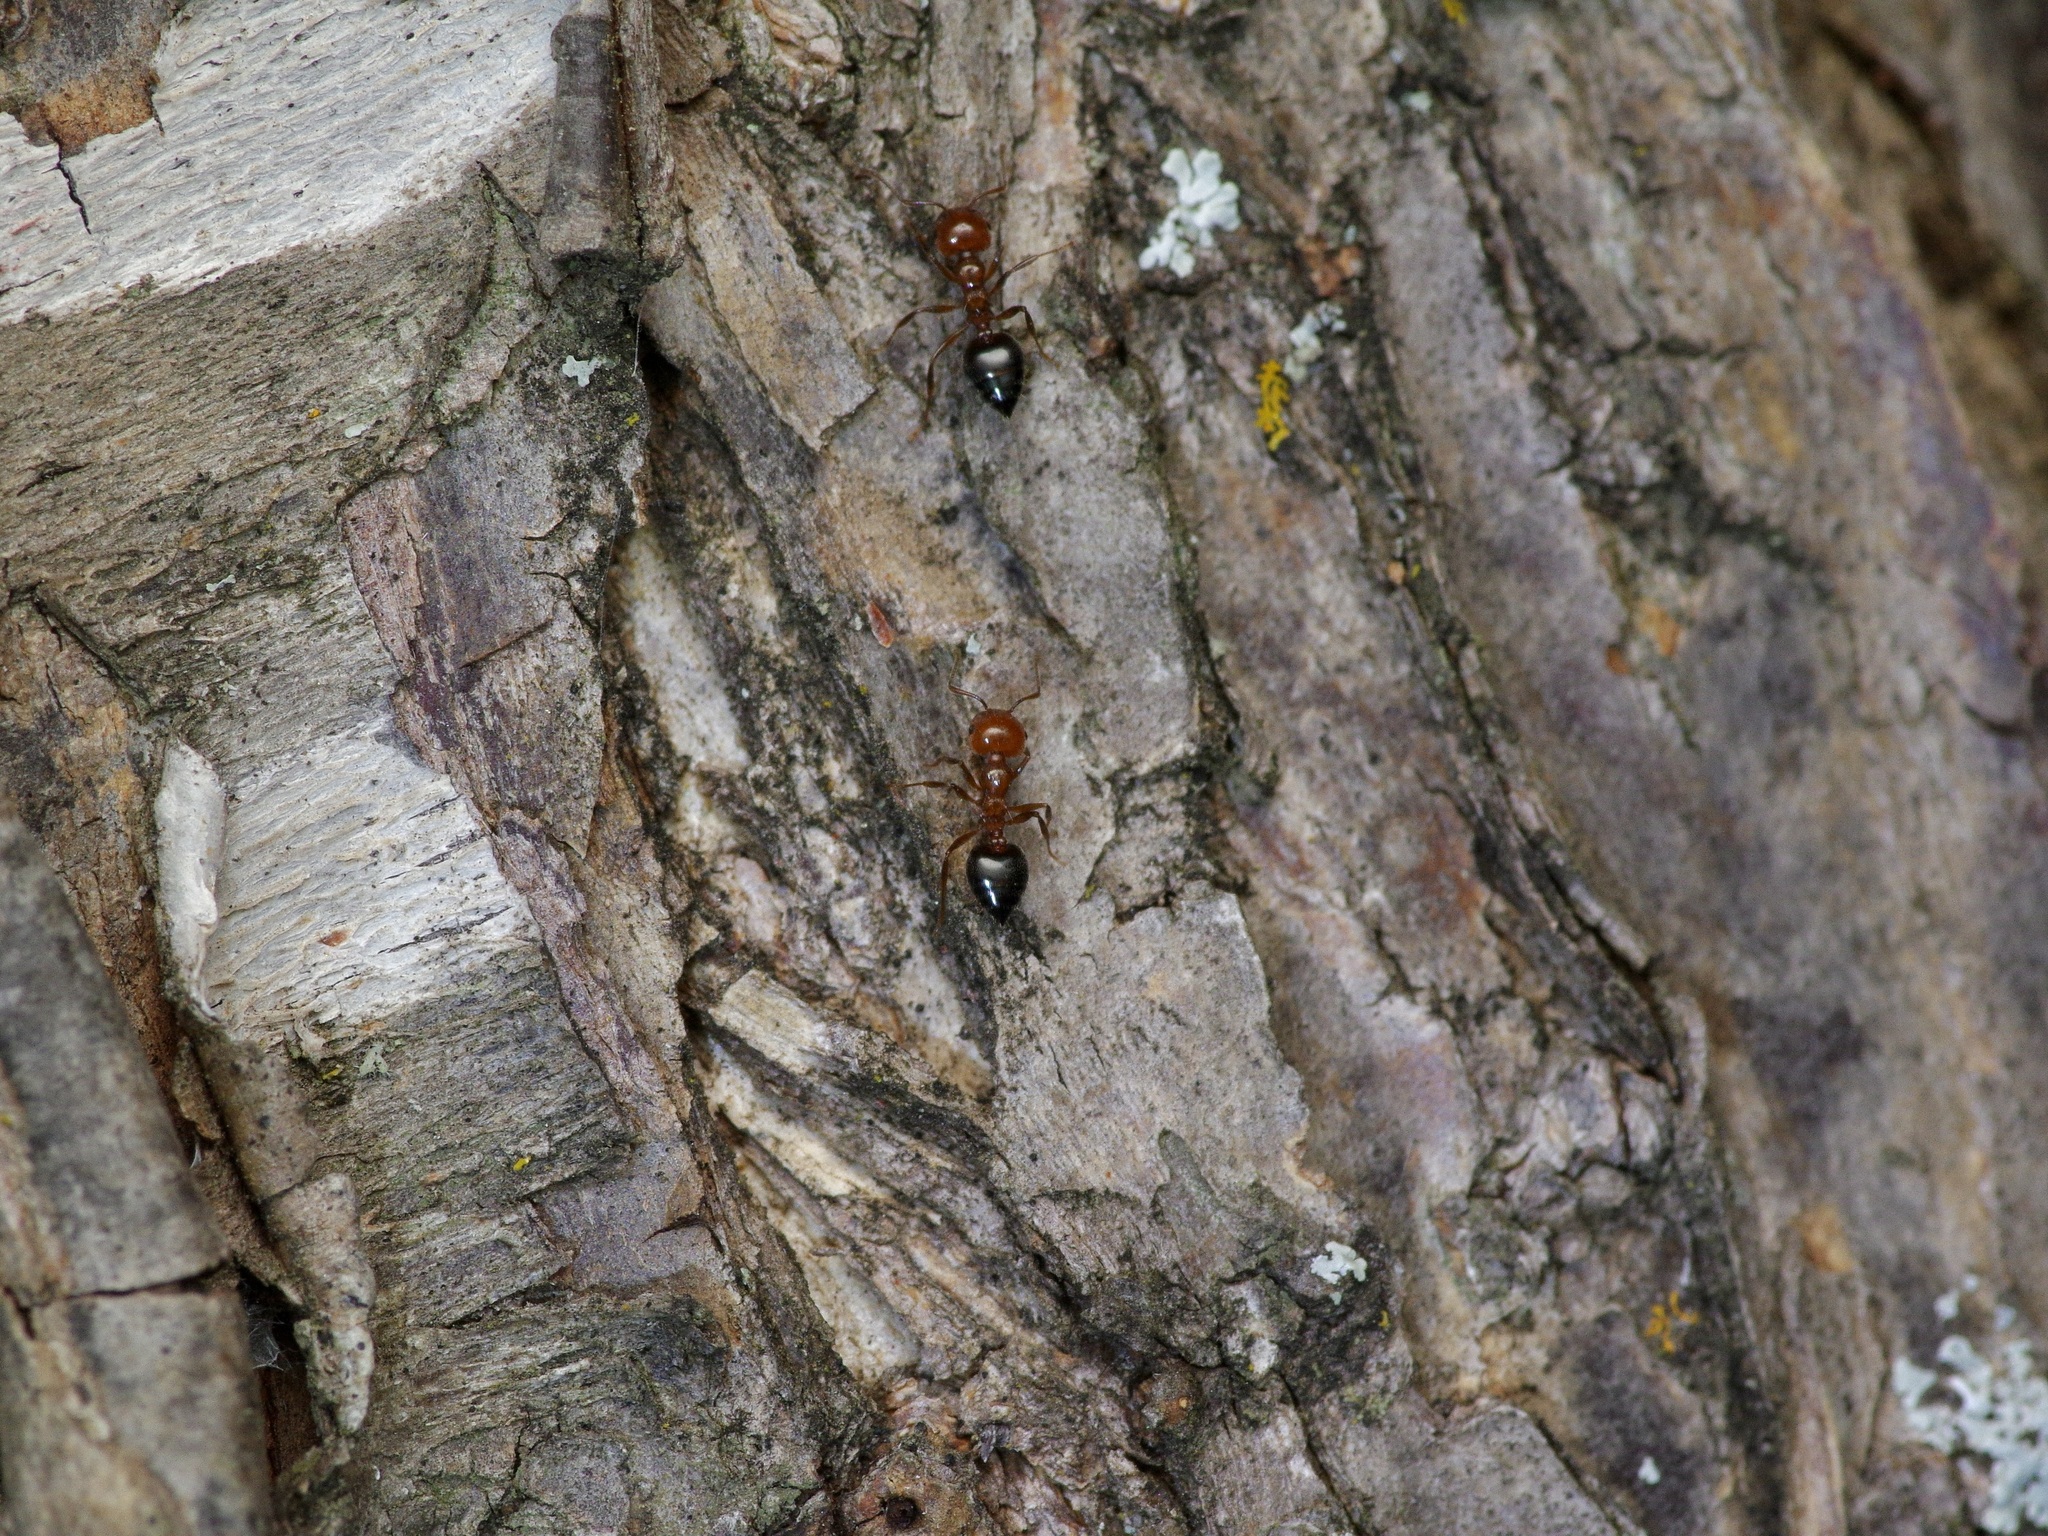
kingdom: Animalia
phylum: Arthropoda
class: Insecta
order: Hymenoptera
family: Formicidae
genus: Crematogaster
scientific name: Crematogaster laeviuscula
